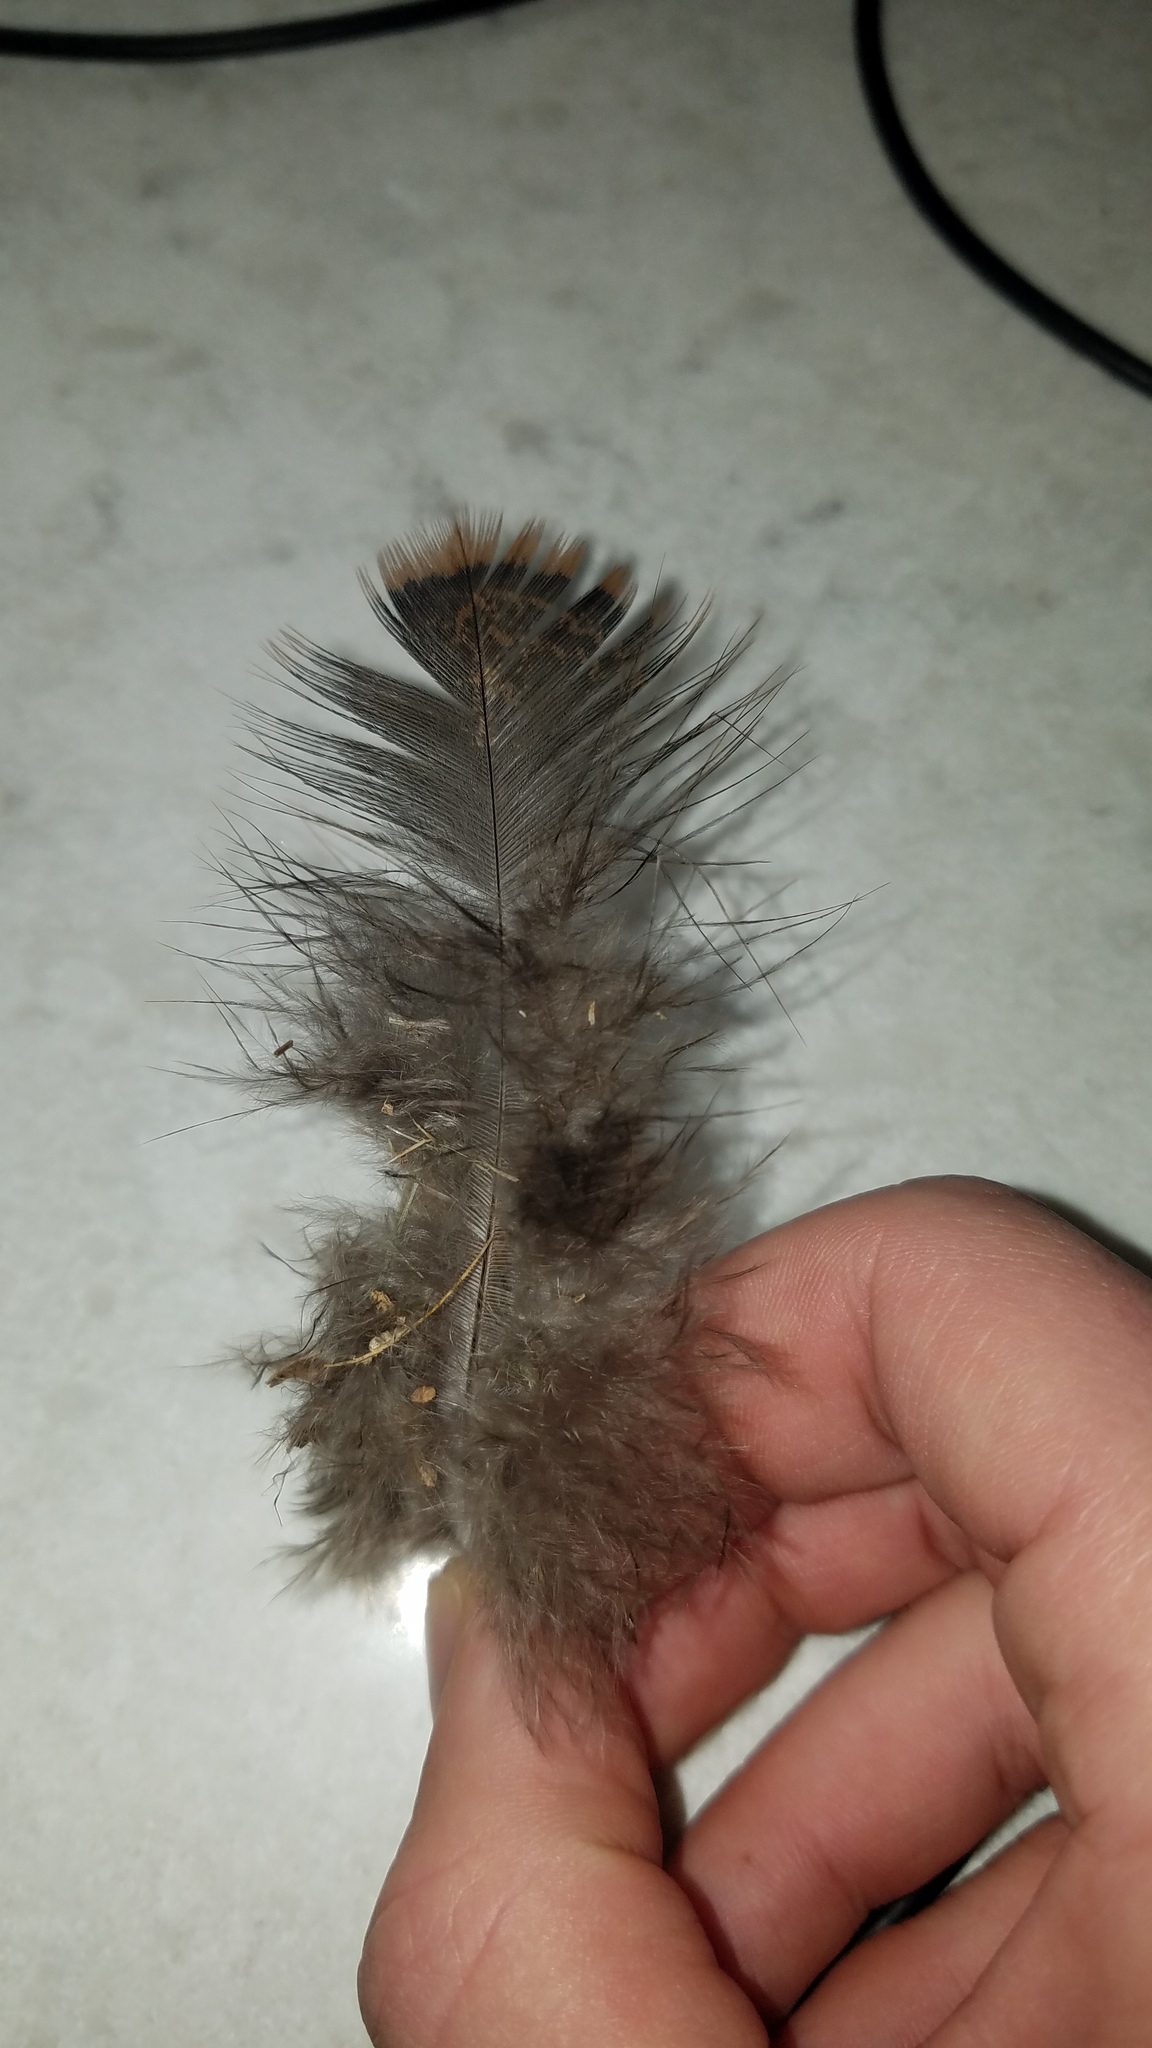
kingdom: Animalia
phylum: Chordata
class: Aves
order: Galliformes
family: Phasianidae
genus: Meleagris
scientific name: Meleagris gallopavo
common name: Wild turkey
